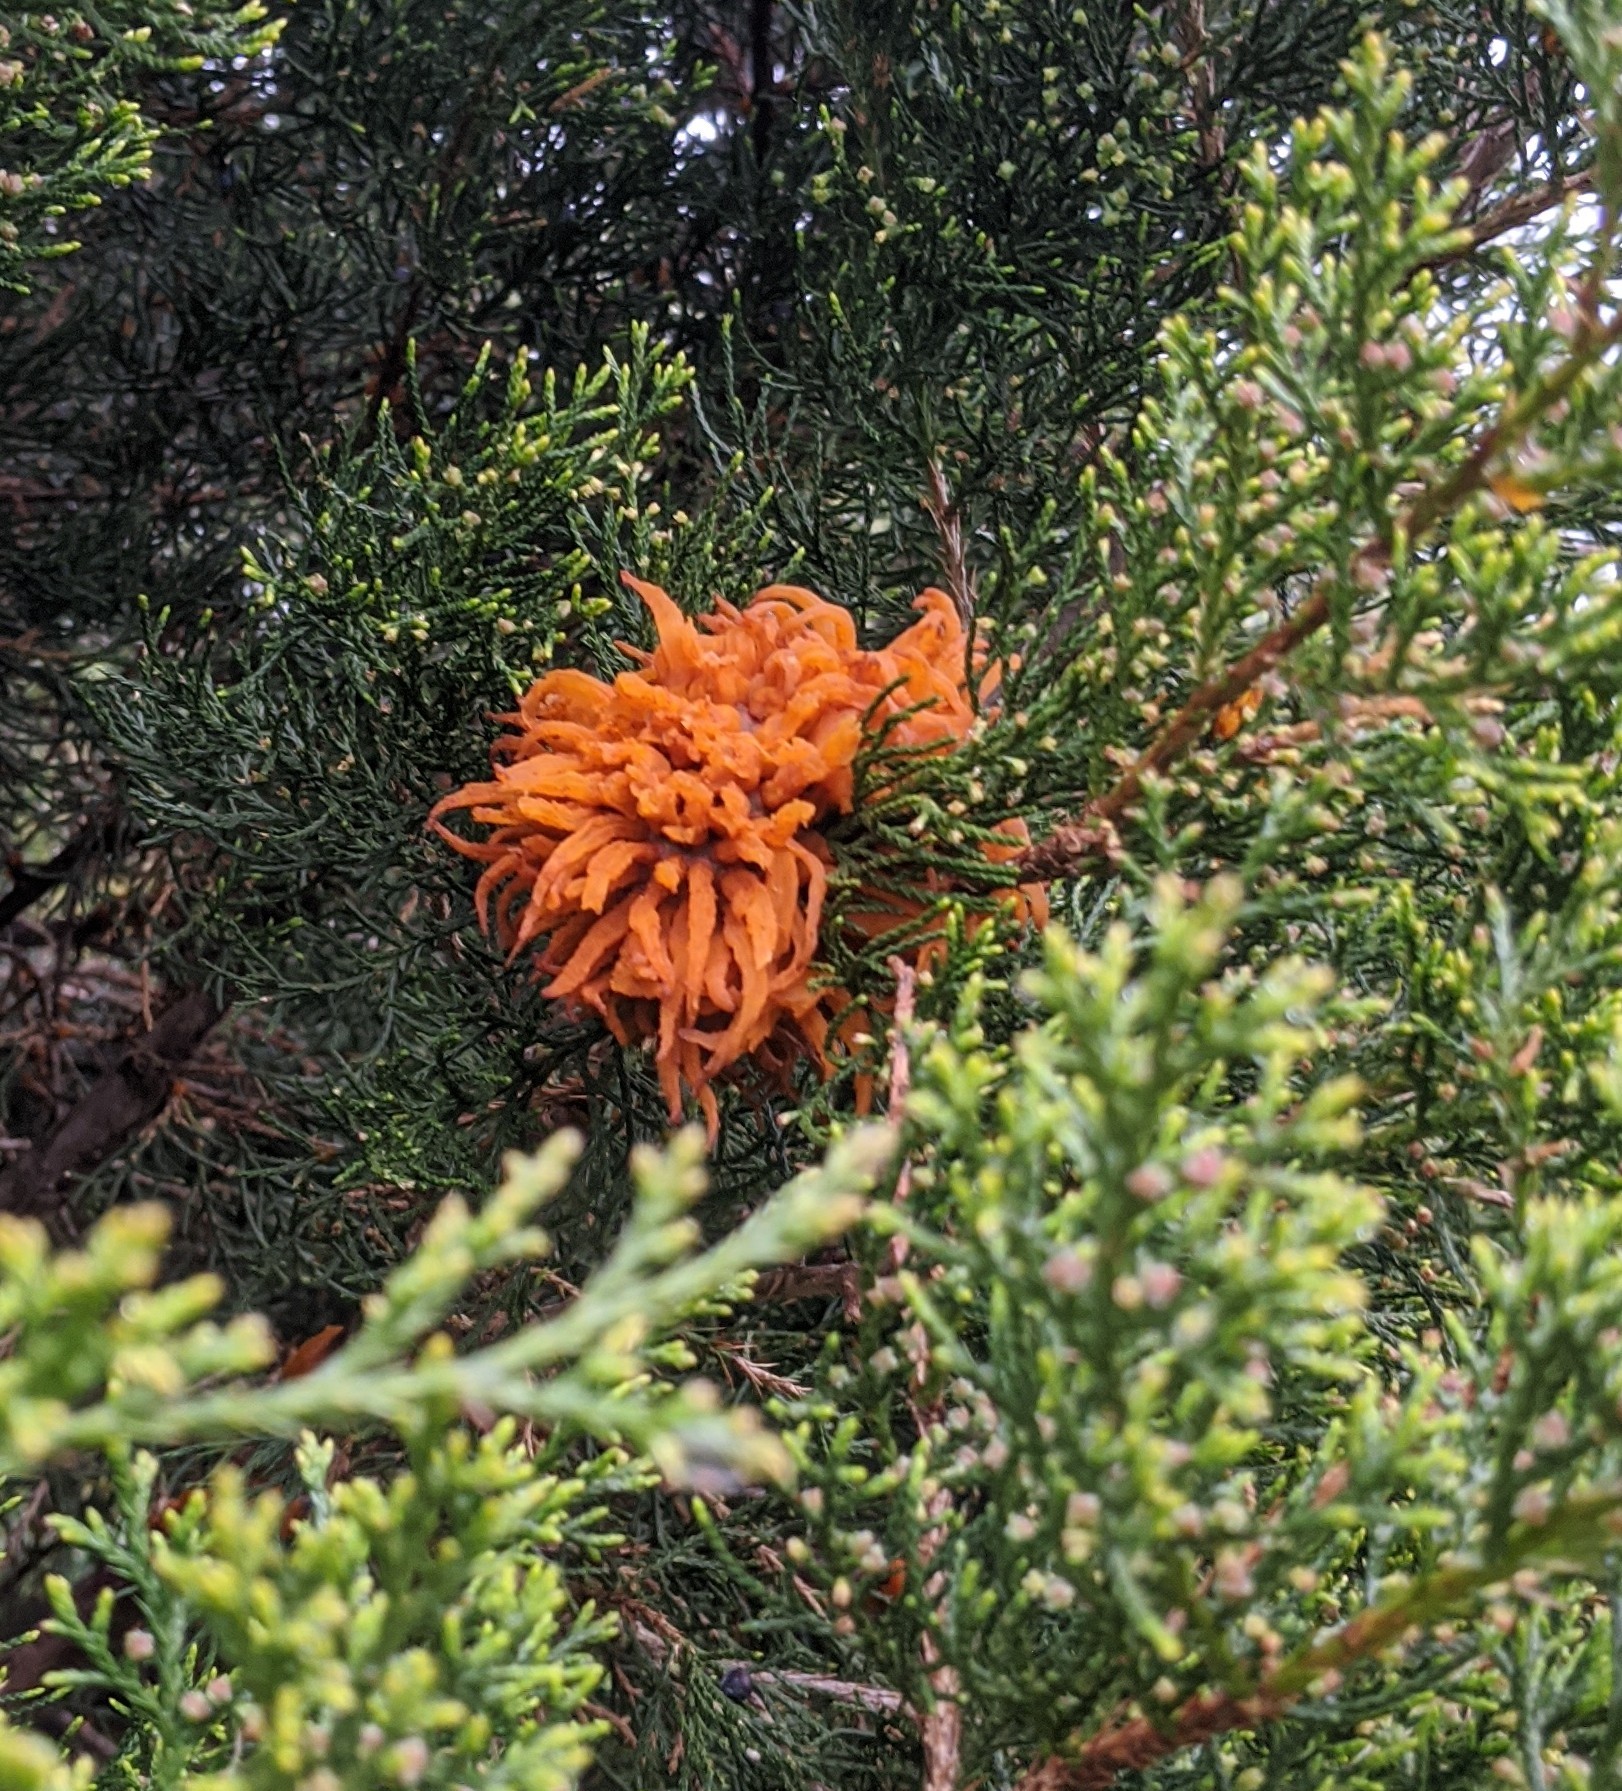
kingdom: Fungi
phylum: Basidiomycota
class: Pucciniomycetes
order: Pucciniales
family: Gymnosporangiaceae
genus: Gymnosporangium
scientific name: Gymnosporangium juniperi-virginianae
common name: Juniper-apple rust
